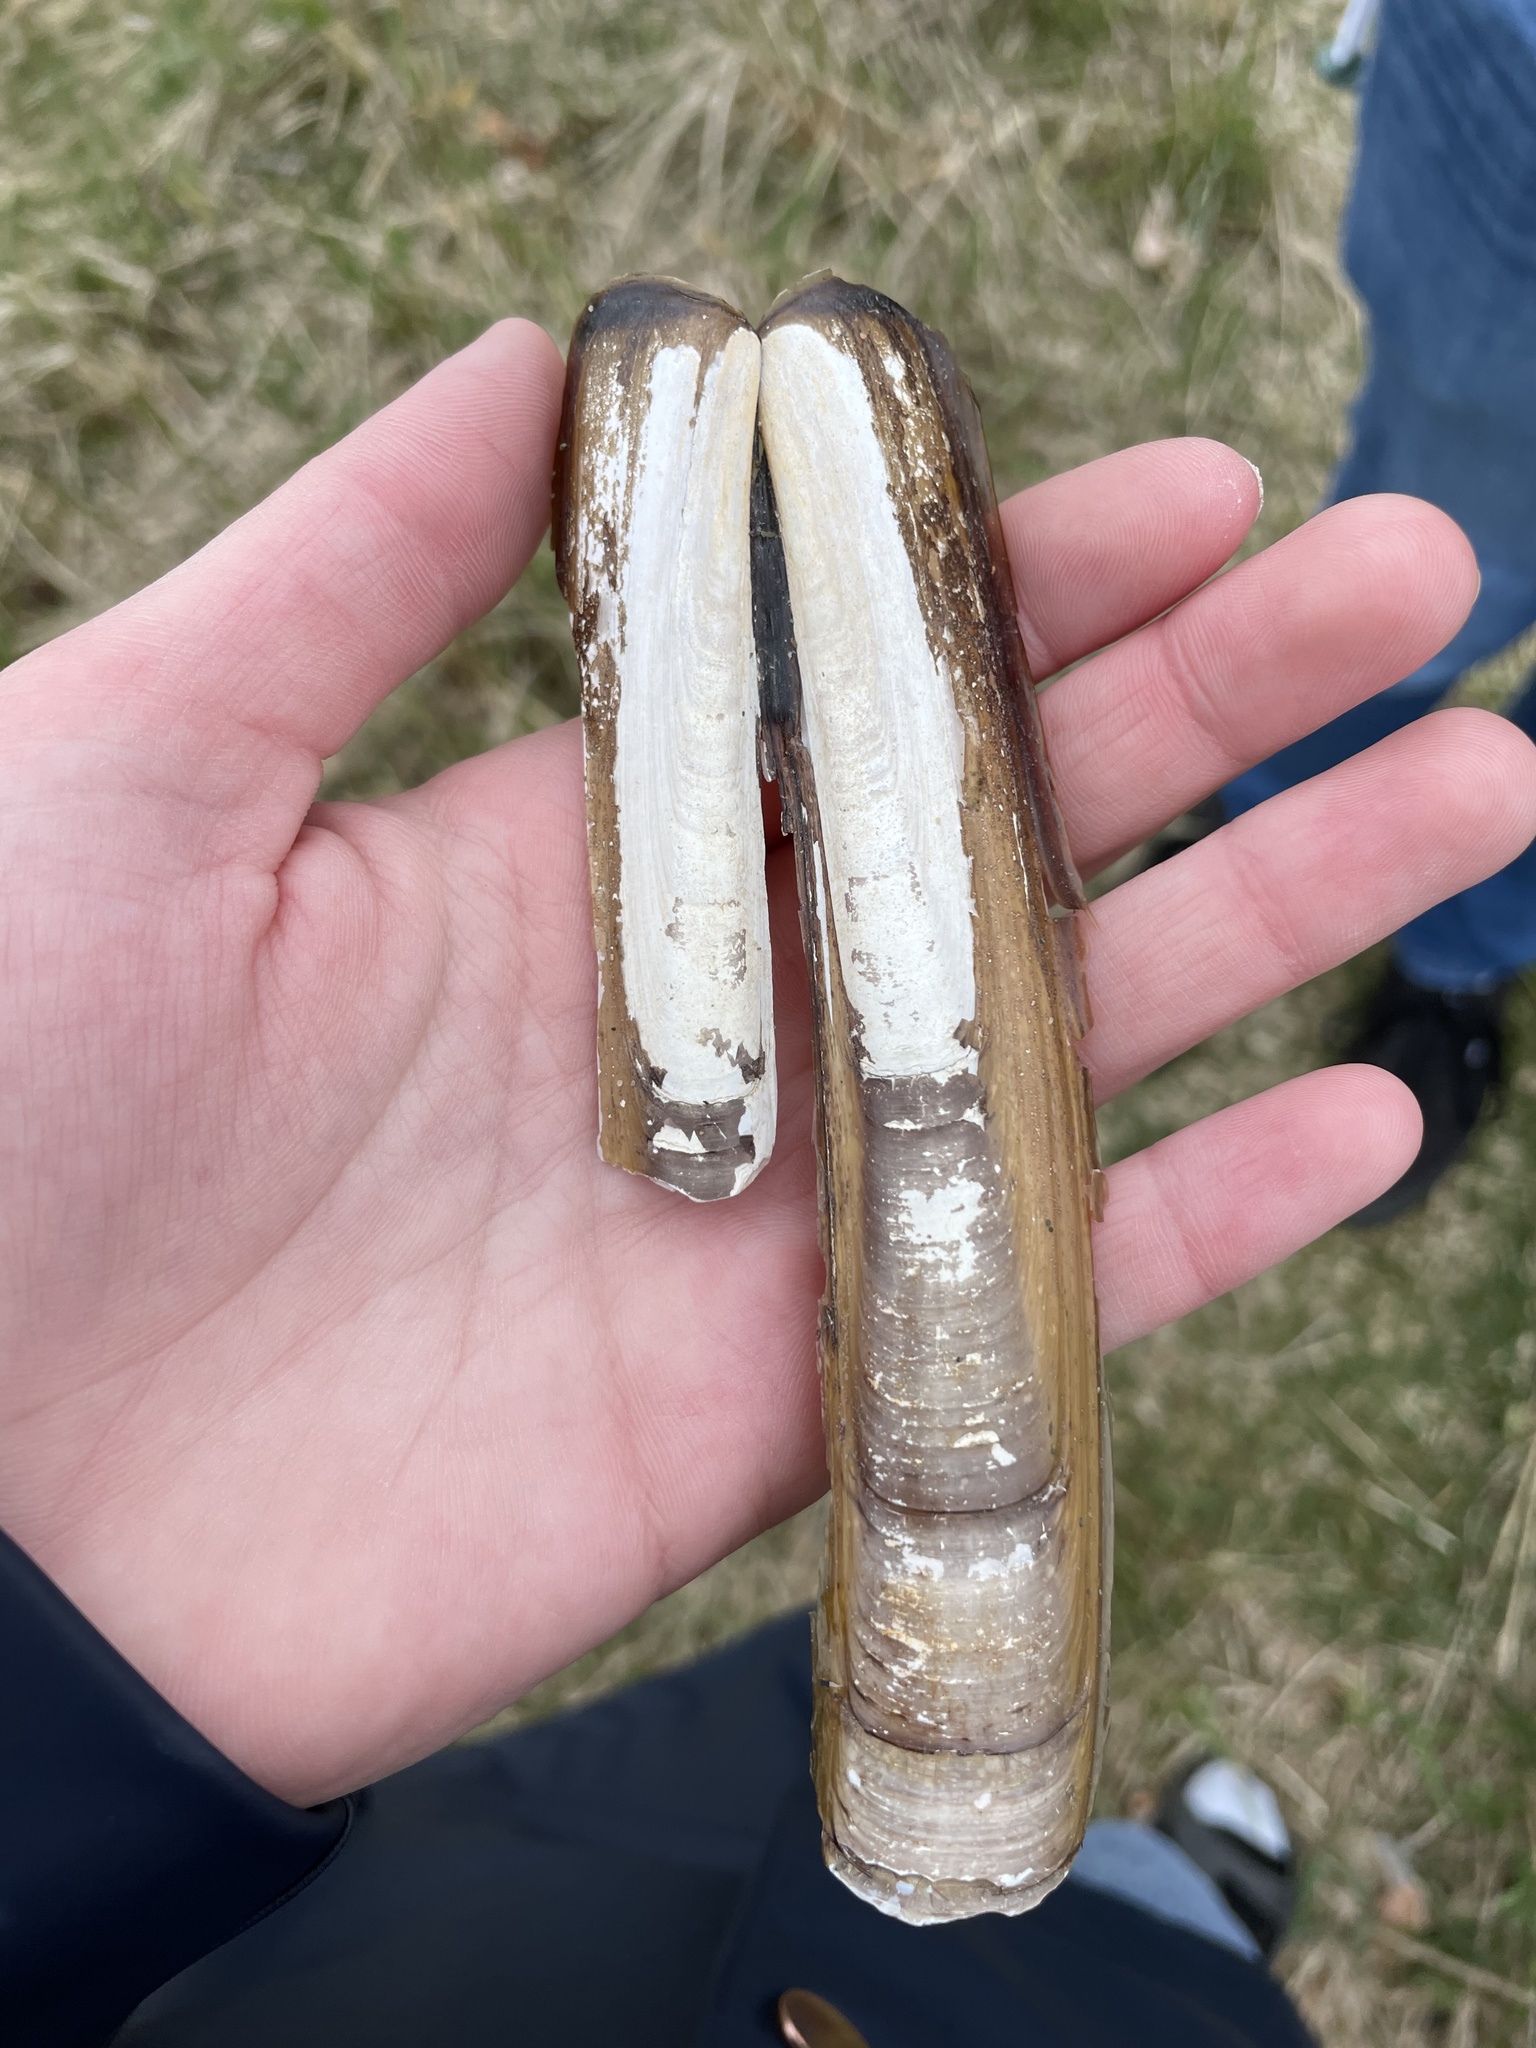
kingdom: Animalia
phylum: Mollusca
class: Bivalvia
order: Adapedonta
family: Pharidae
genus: Ensis
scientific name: Ensis leei
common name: American jack knife clam
